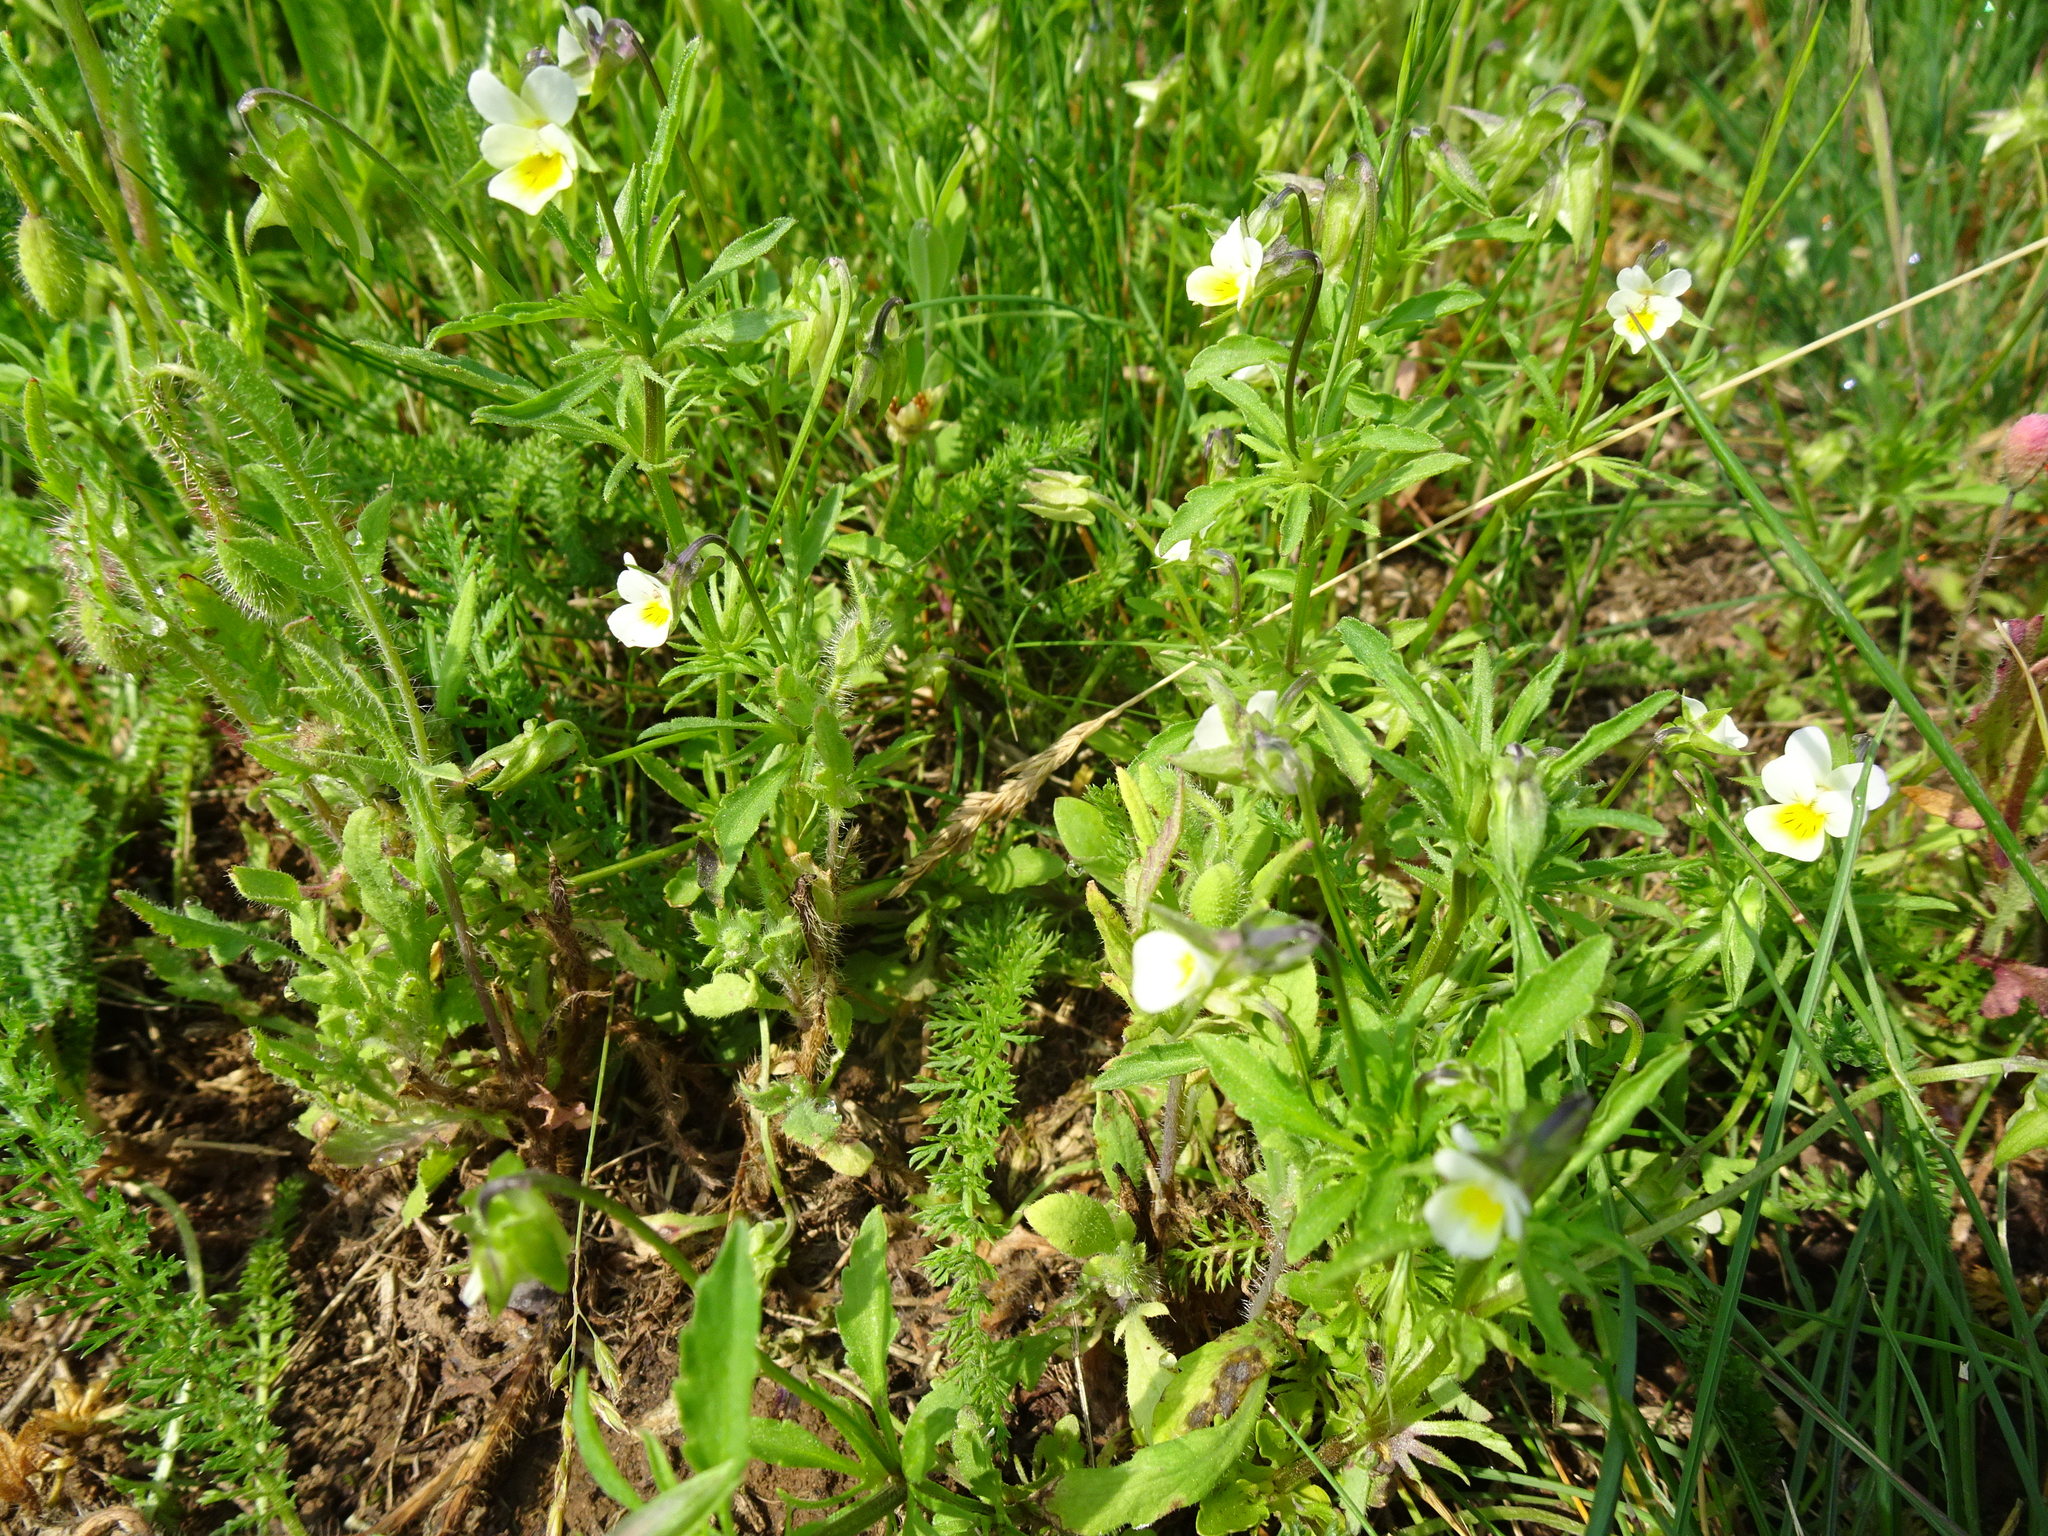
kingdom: Plantae
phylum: Tracheophyta
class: Magnoliopsida
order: Malpighiales
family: Violaceae
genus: Viola
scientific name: Viola arvensis
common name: Field pansy
